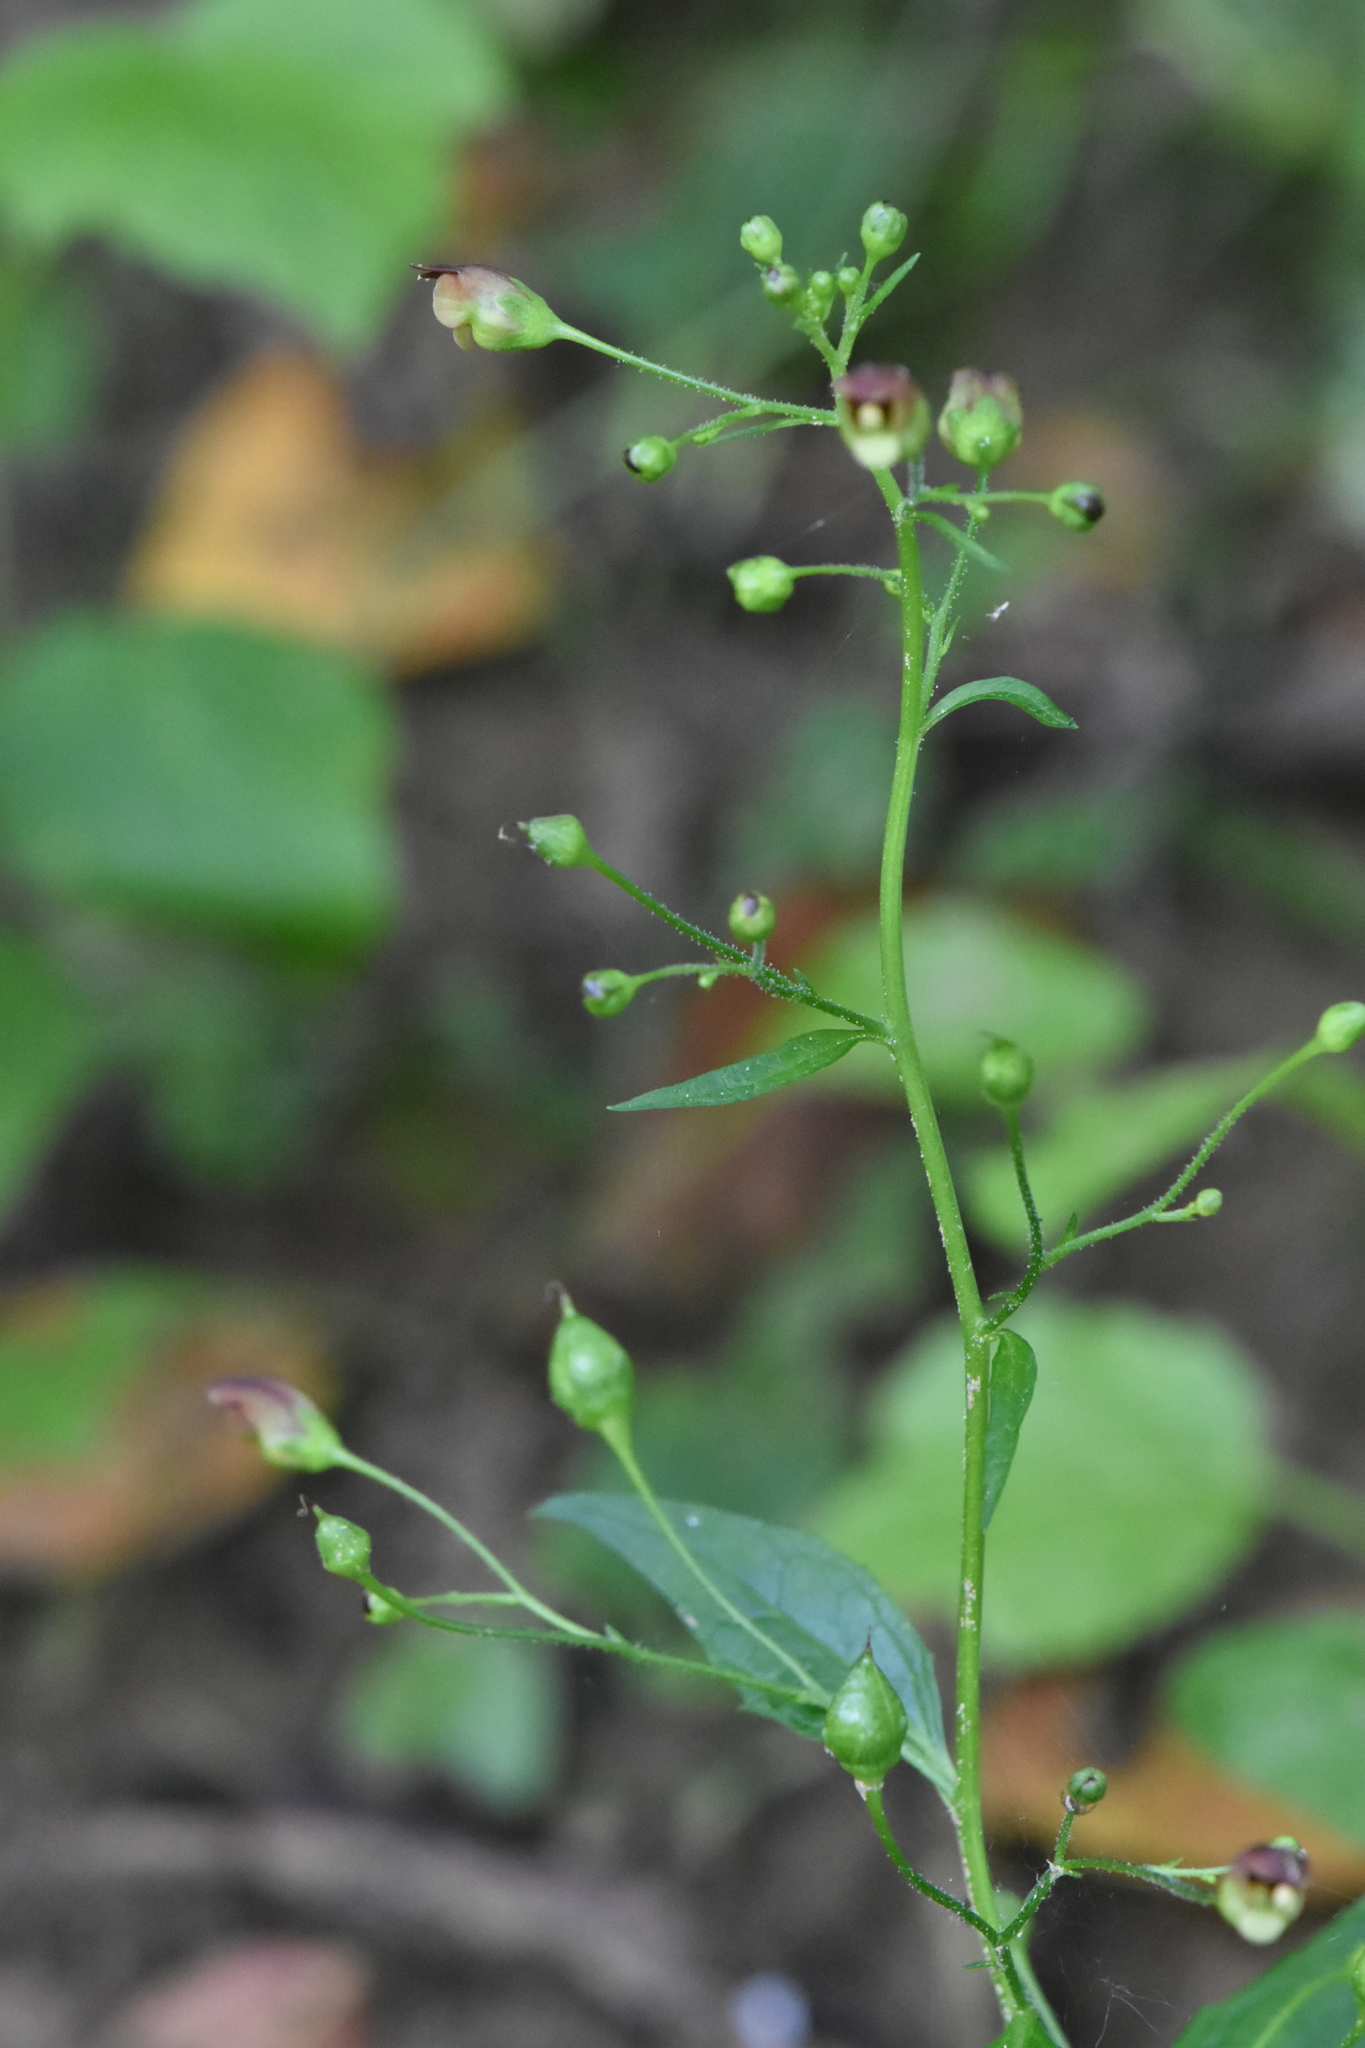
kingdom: Plantae
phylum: Tracheophyta
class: Magnoliopsida
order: Lamiales
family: Scrophulariaceae
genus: Scrophularia
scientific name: Scrophularia nodosa
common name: Common figwort
